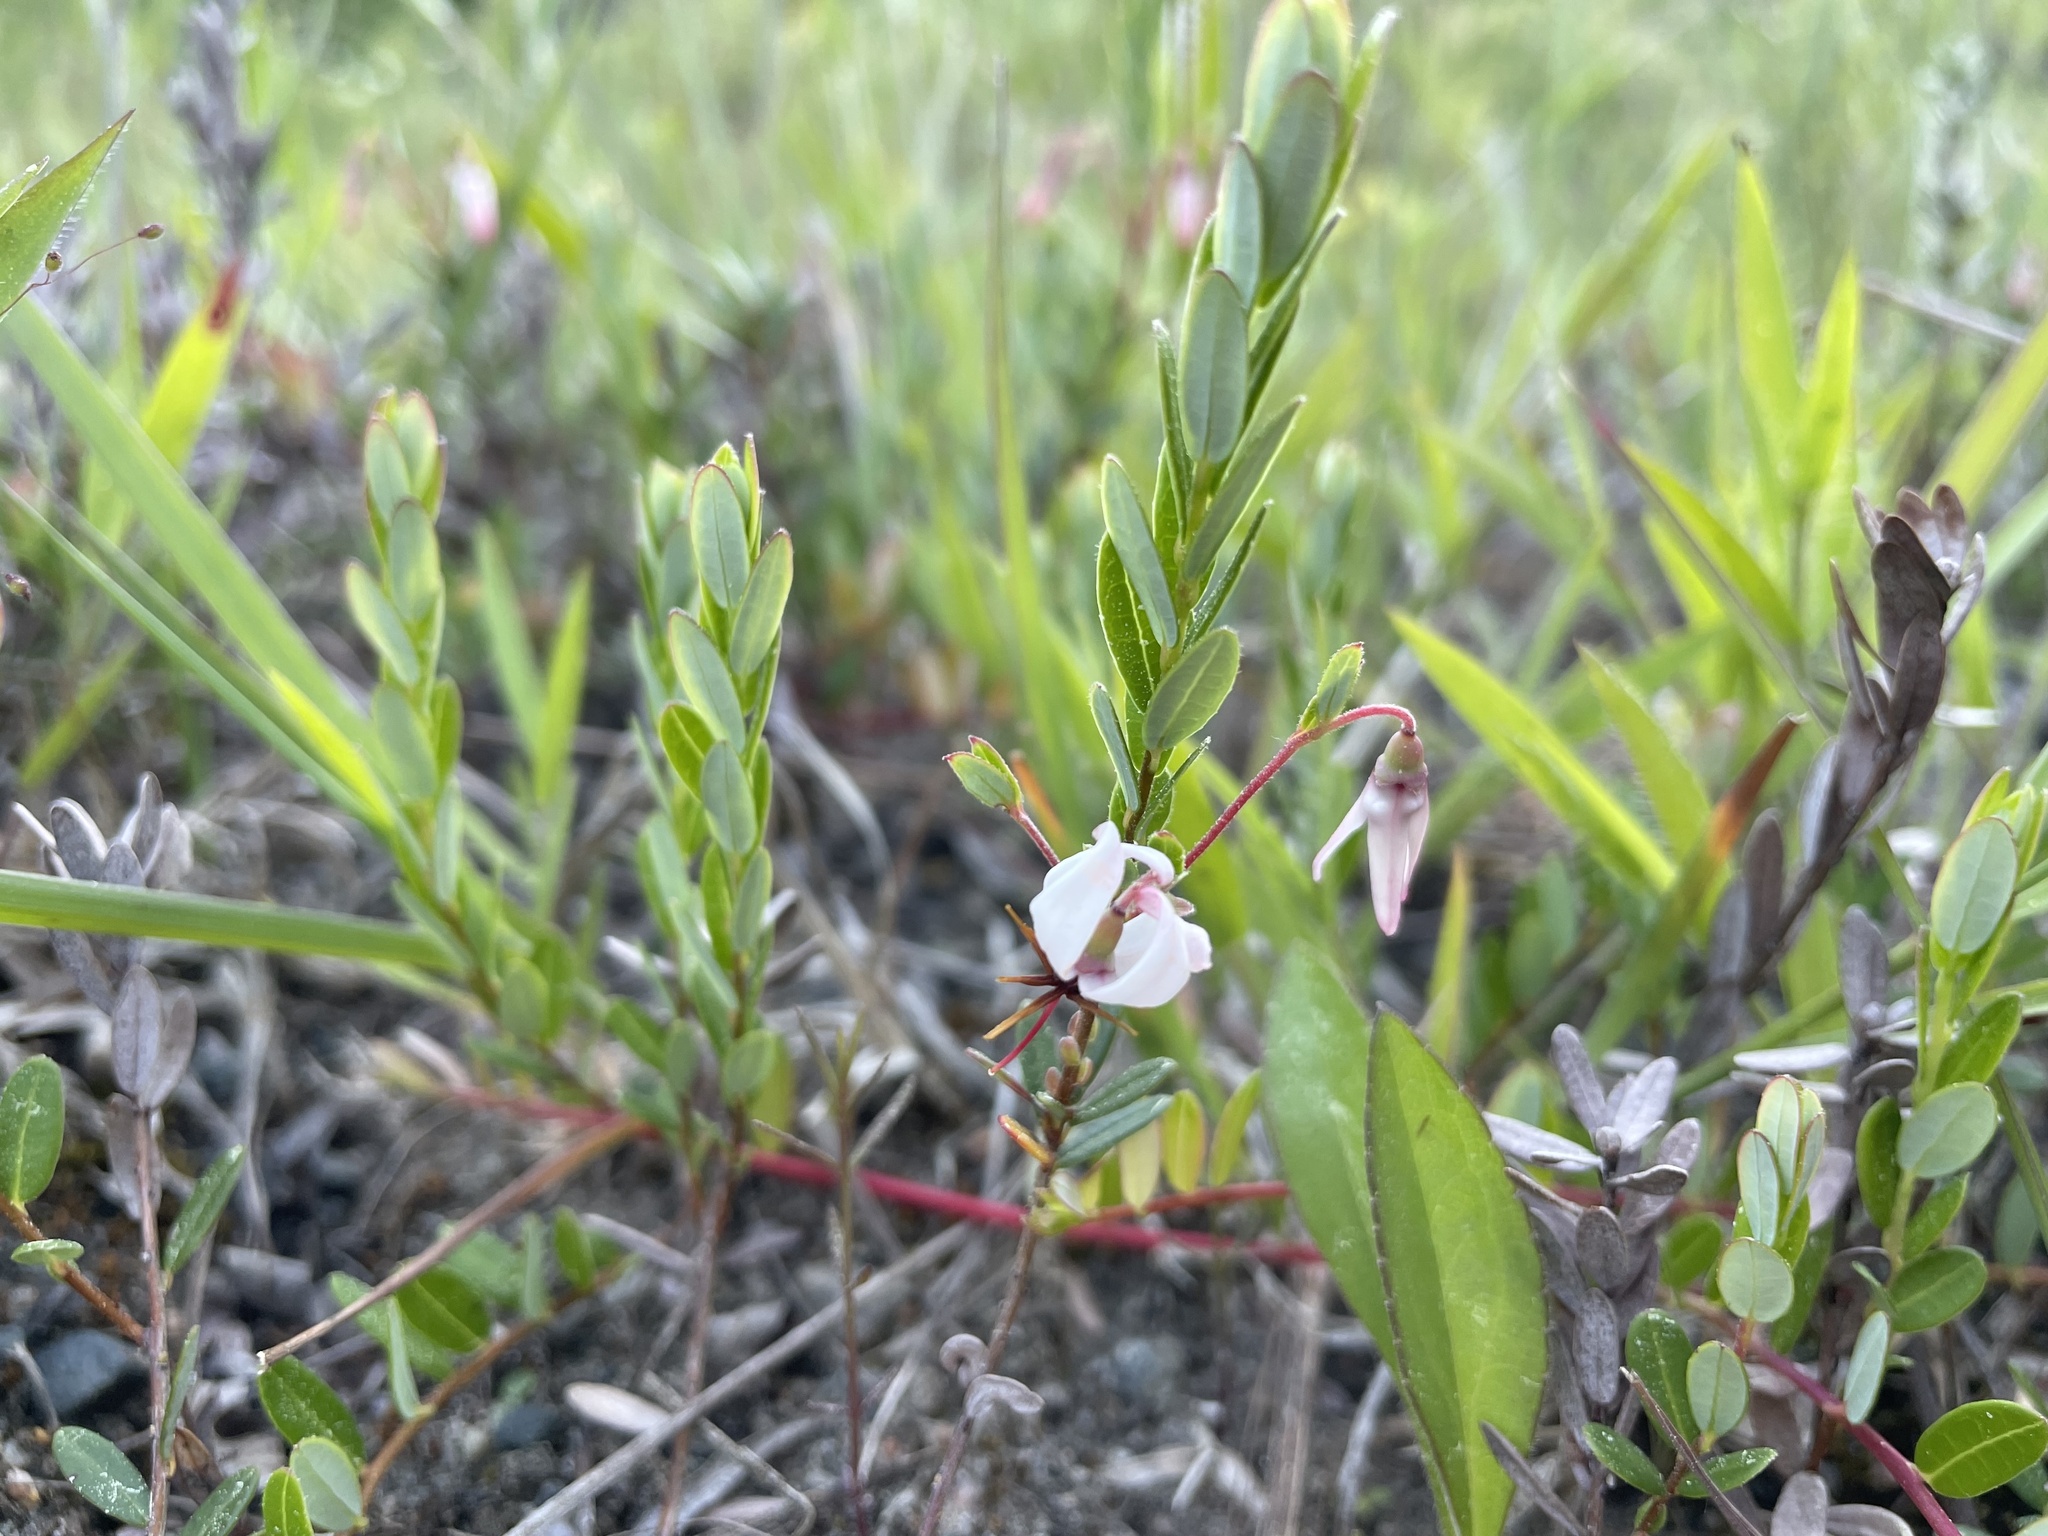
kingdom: Plantae
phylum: Tracheophyta
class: Magnoliopsida
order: Ericales
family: Ericaceae
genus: Vaccinium
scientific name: Vaccinium macrocarpon
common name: American cranberry
